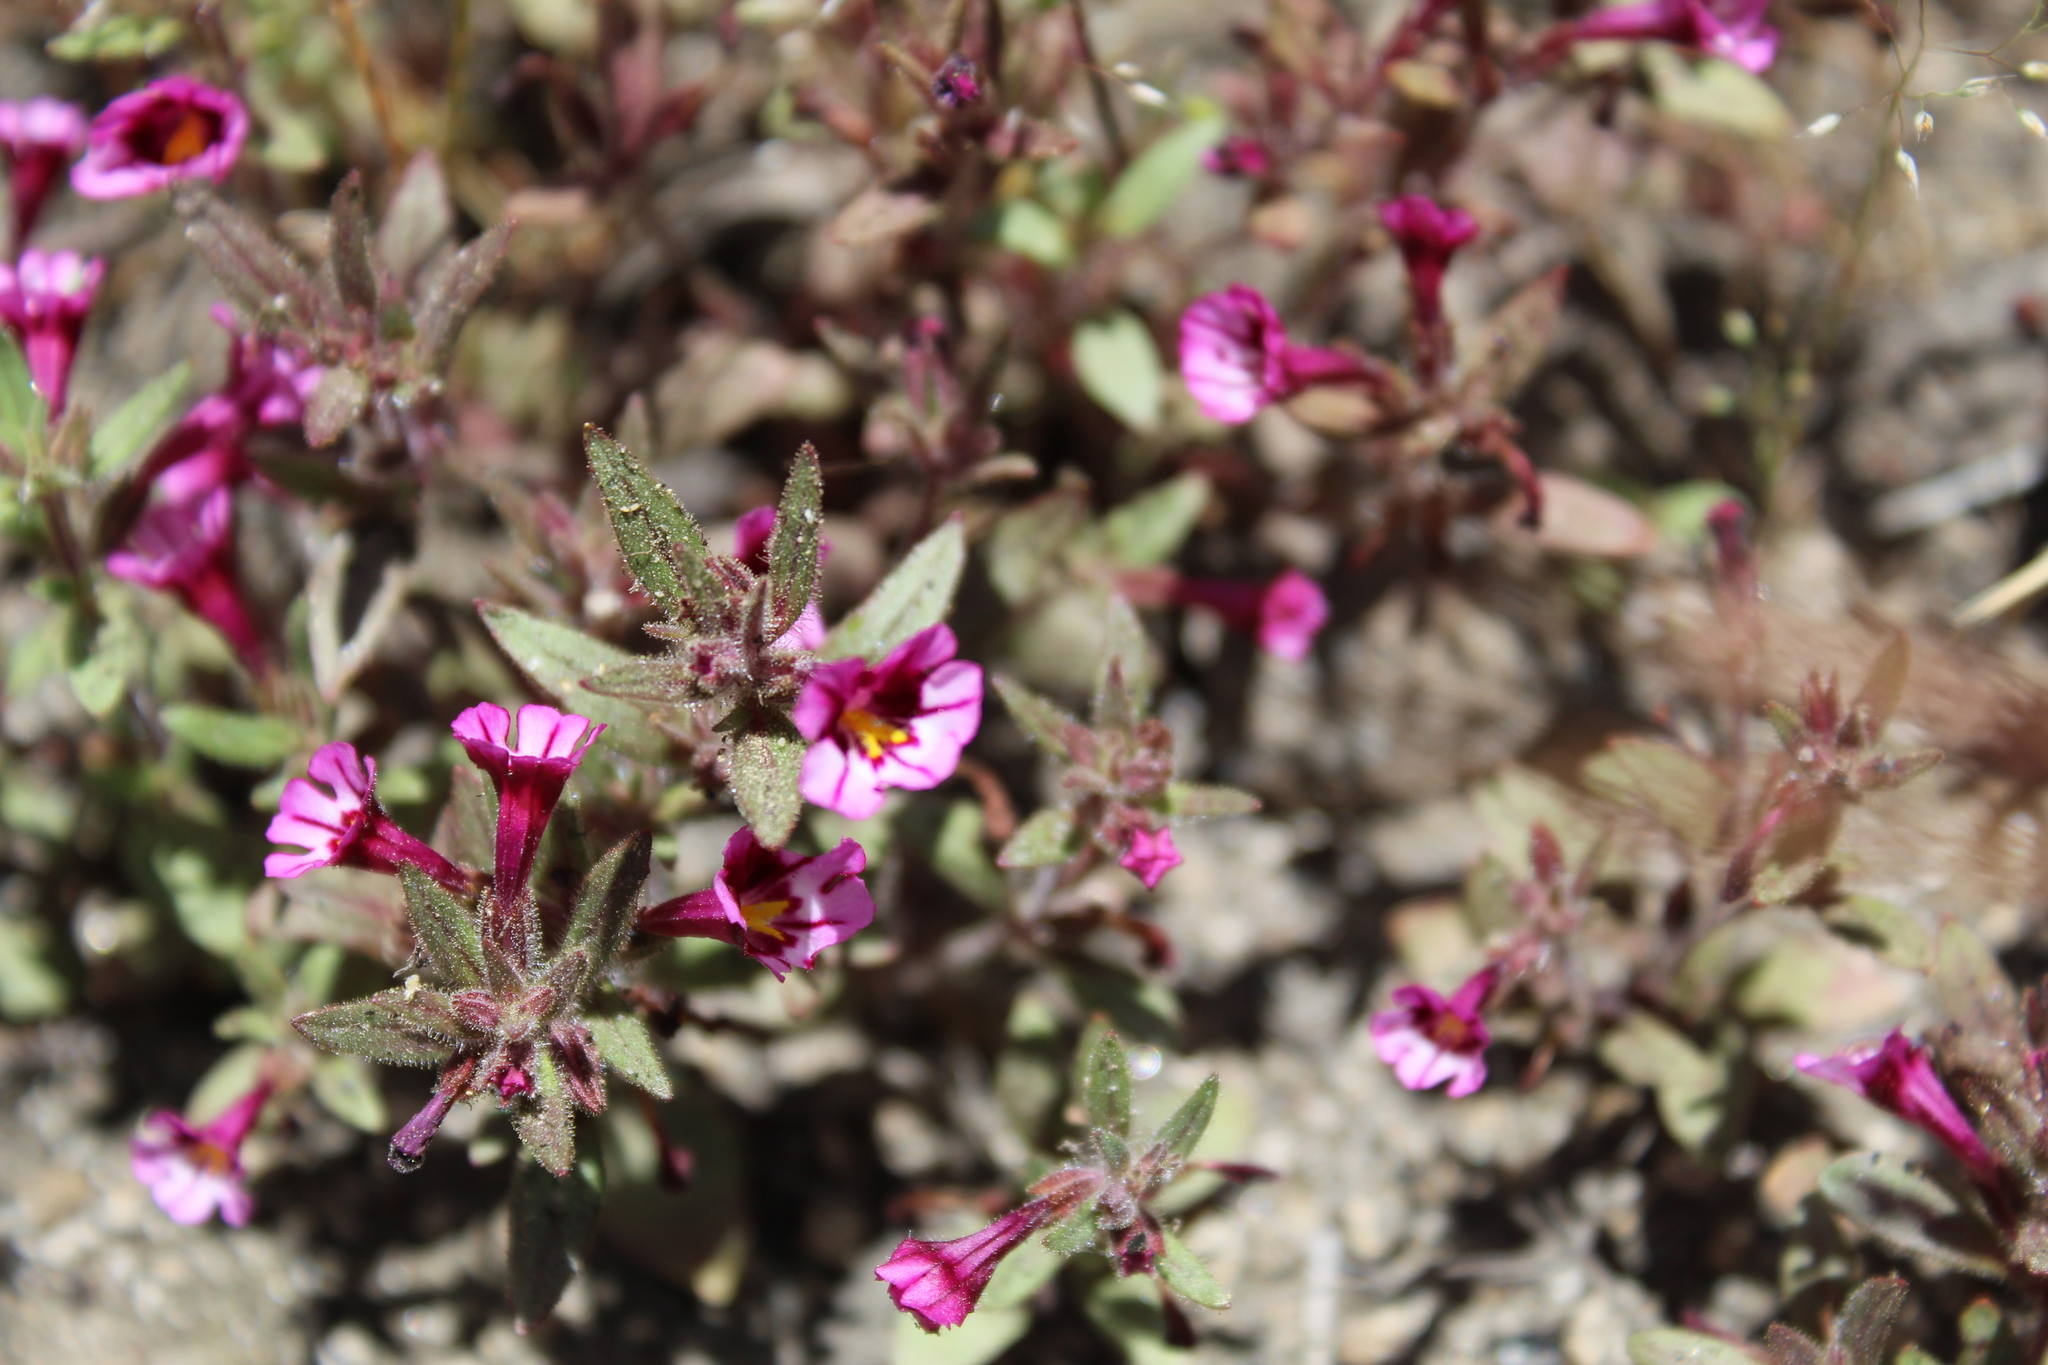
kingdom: Plantae
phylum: Tracheophyta
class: Magnoliopsida
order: Lamiales
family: Phrymaceae
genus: Diplacus
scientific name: Diplacus graniticola
